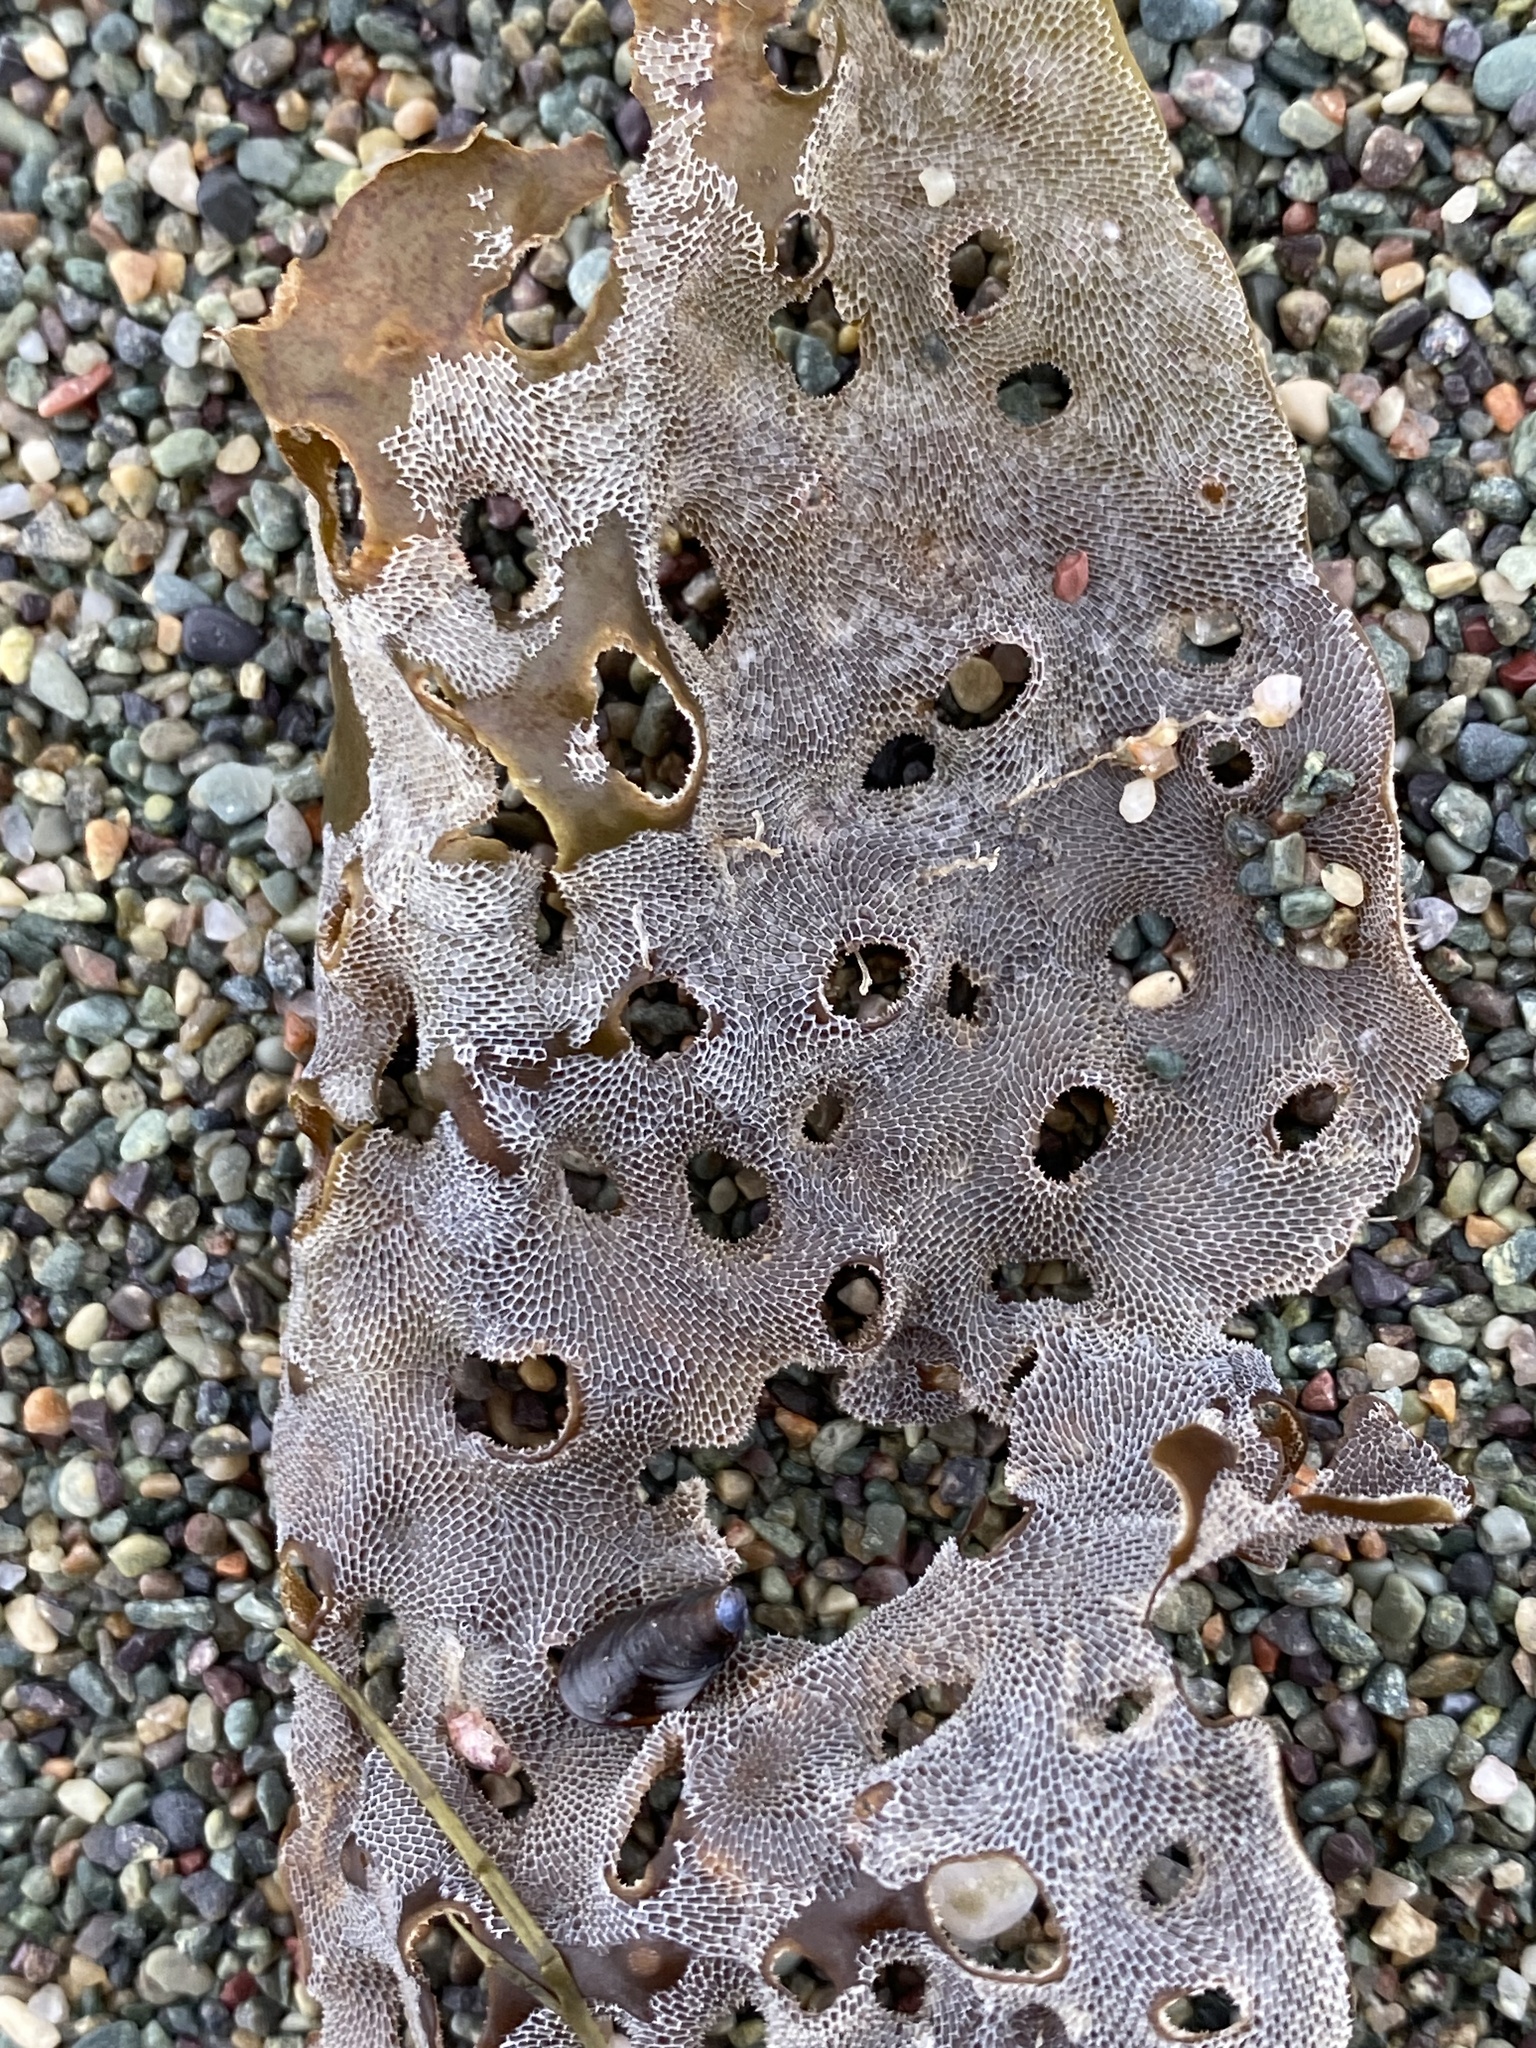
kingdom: Chromista
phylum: Ochrophyta
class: Phaeophyceae
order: Laminariales
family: Costariaceae
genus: Agarum
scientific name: Agarum clathratum
